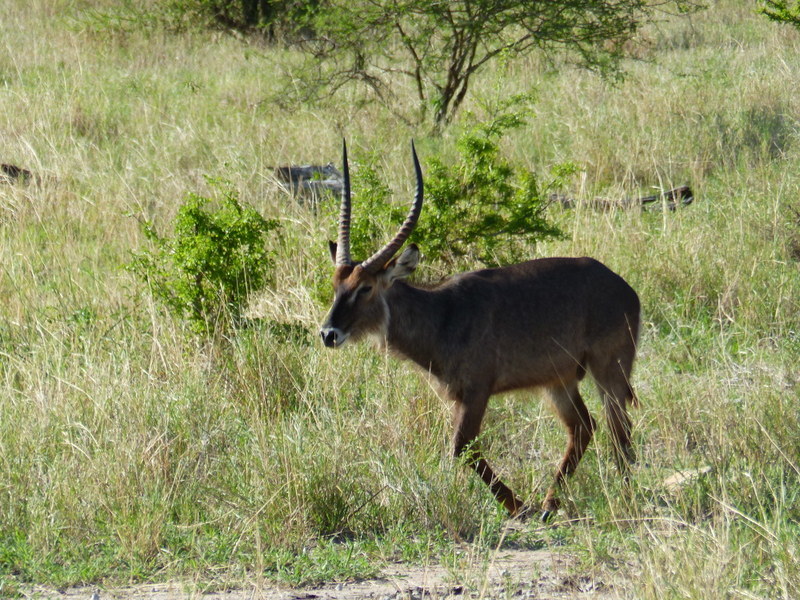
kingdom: Animalia
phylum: Chordata
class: Mammalia
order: Artiodactyla
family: Bovidae
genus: Kobus
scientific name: Kobus ellipsiprymnus
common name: Waterbuck
